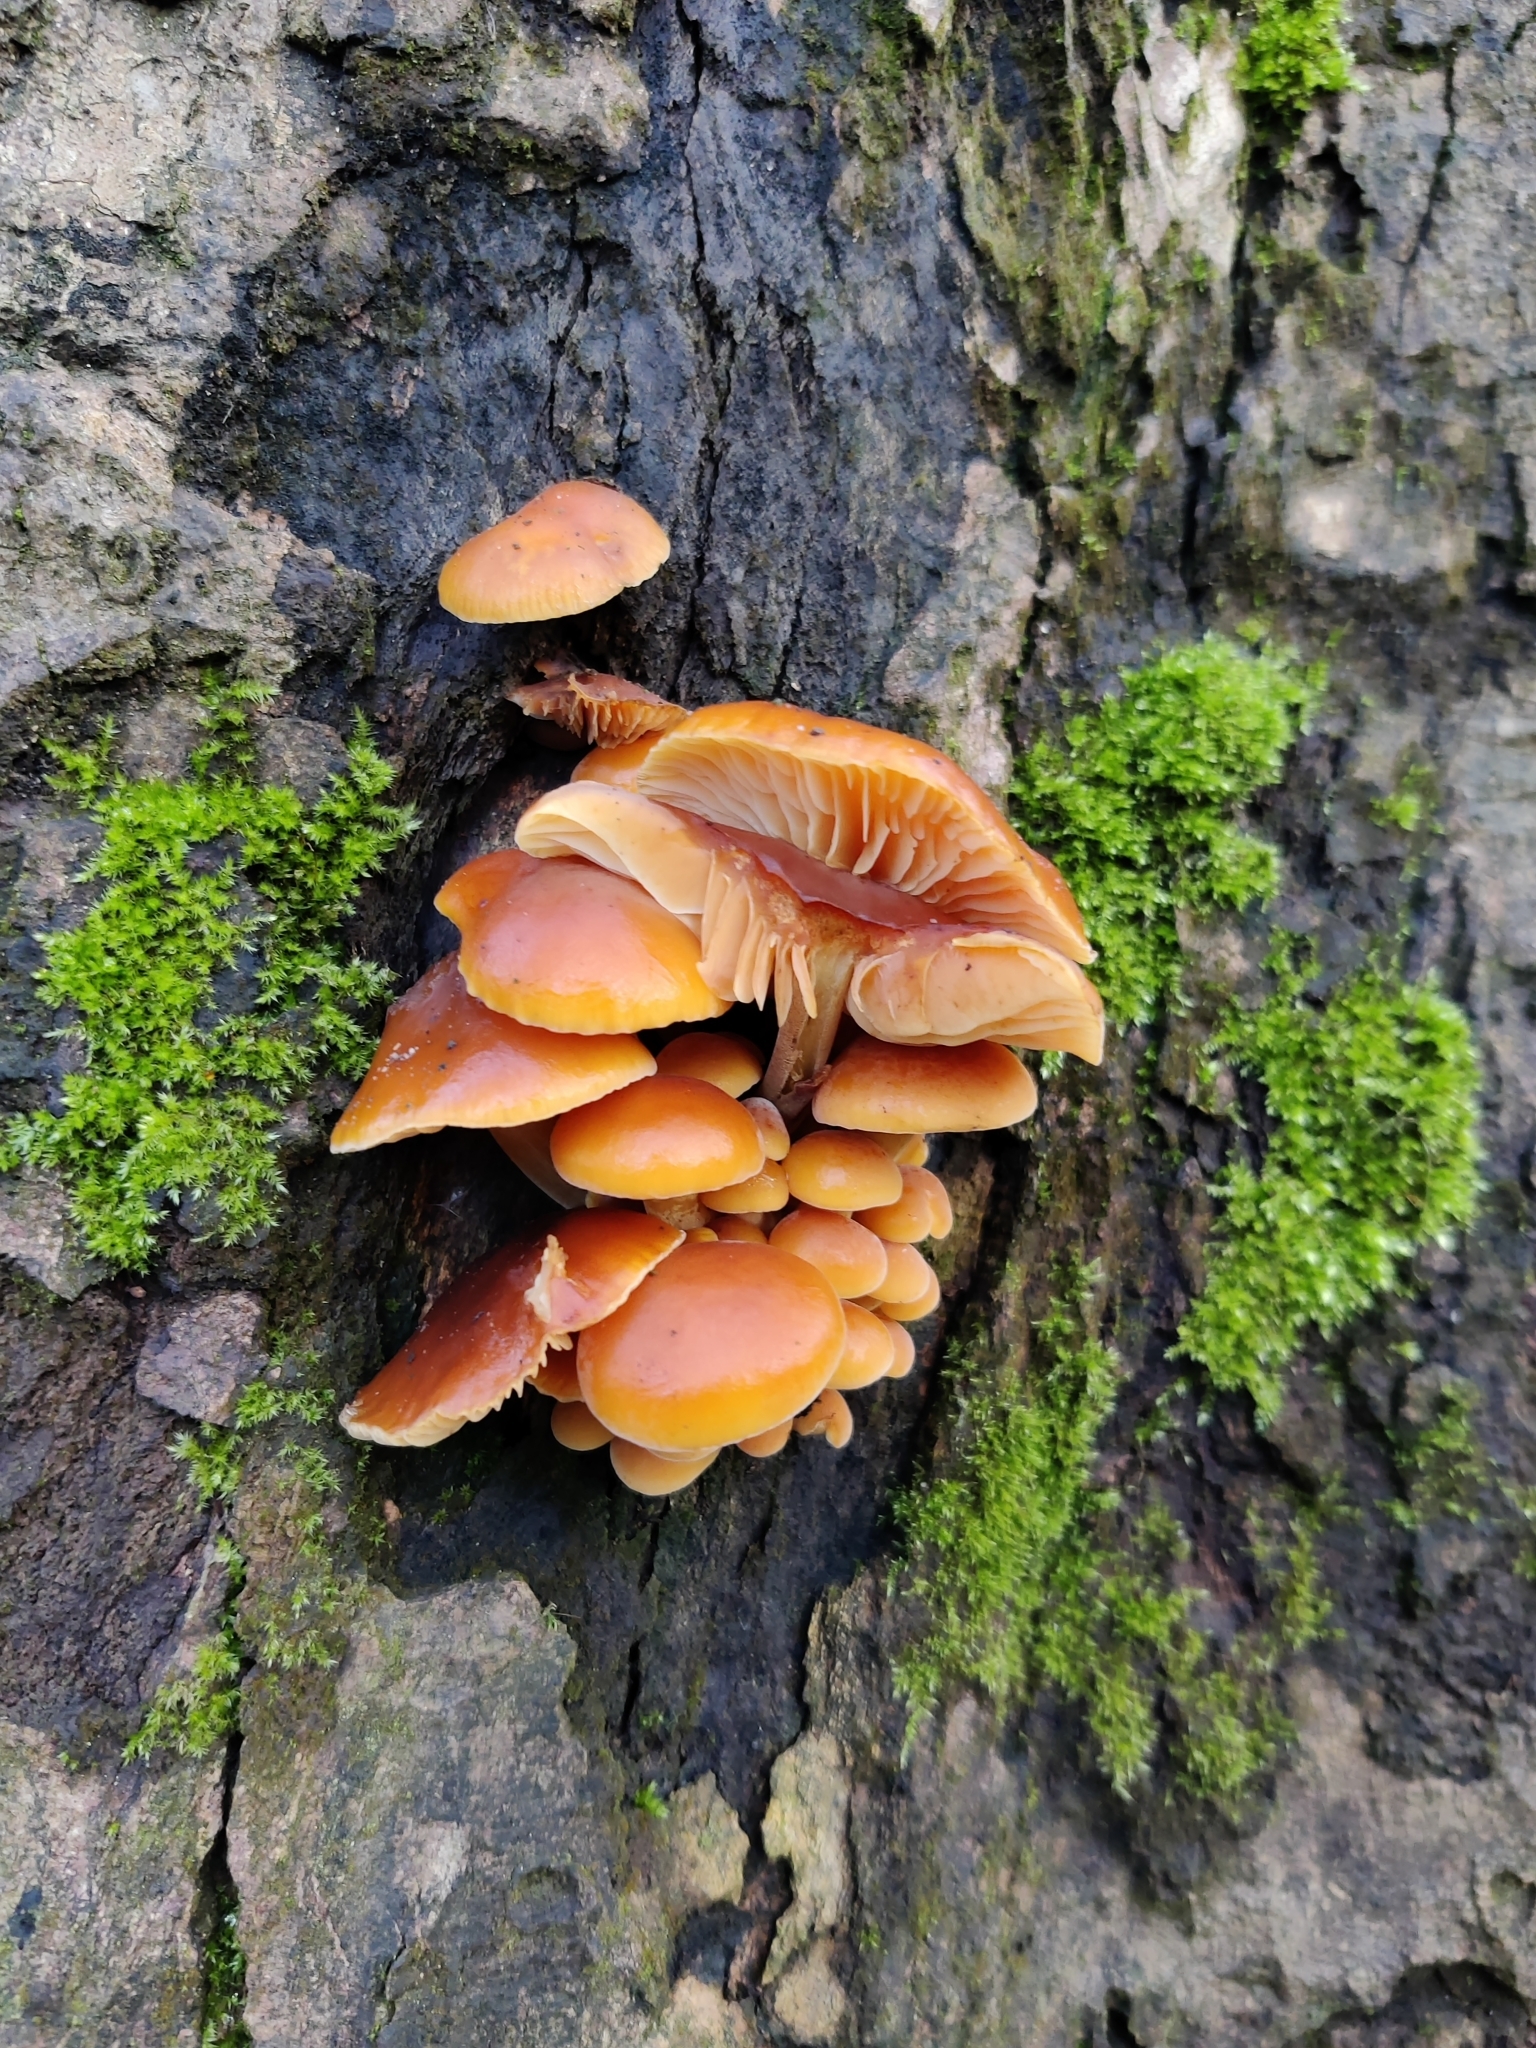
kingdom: Fungi
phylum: Basidiomycota
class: Agaricomycetes
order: Agaricales
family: Physalacriaceae
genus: Flammulina
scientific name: Flammulina
